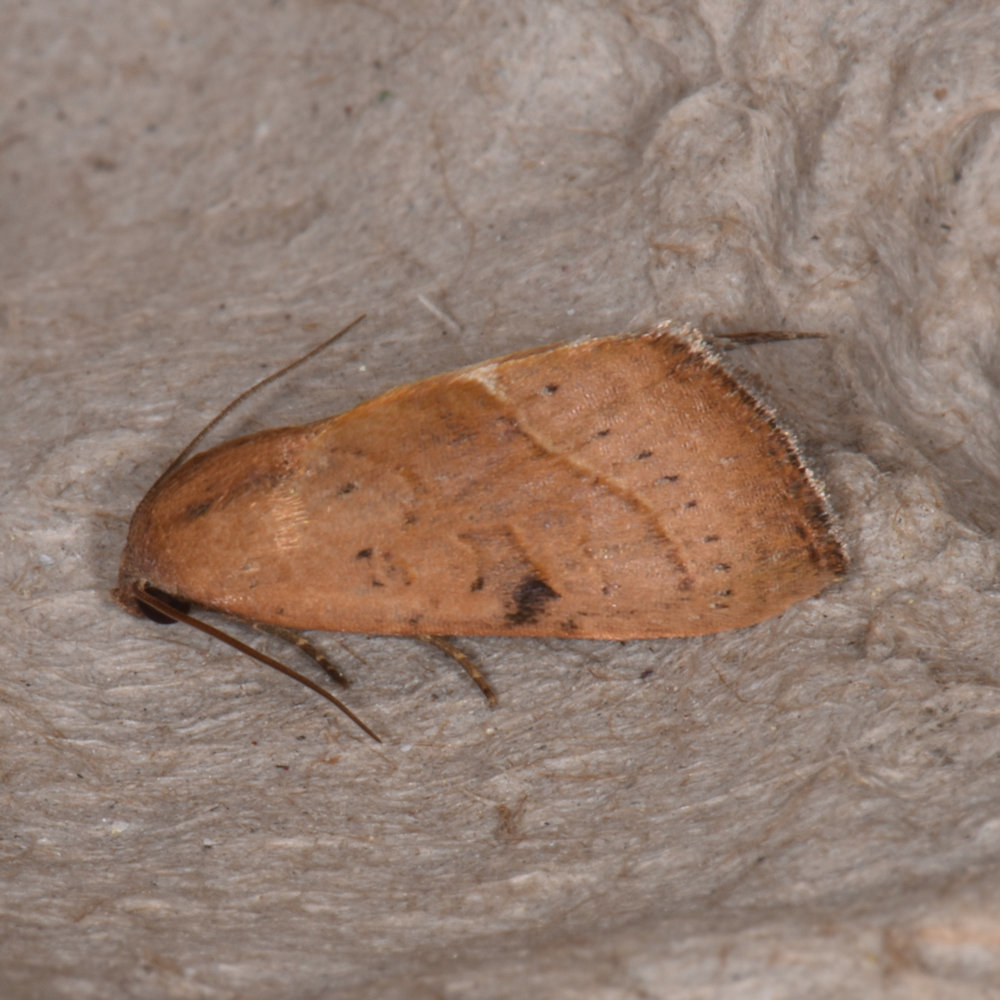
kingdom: Animalia
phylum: Arthropoda
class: Insecta
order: Lepidoptera
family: Noctuidae
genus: Galgula
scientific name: Galgula partita
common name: Wedgeling
